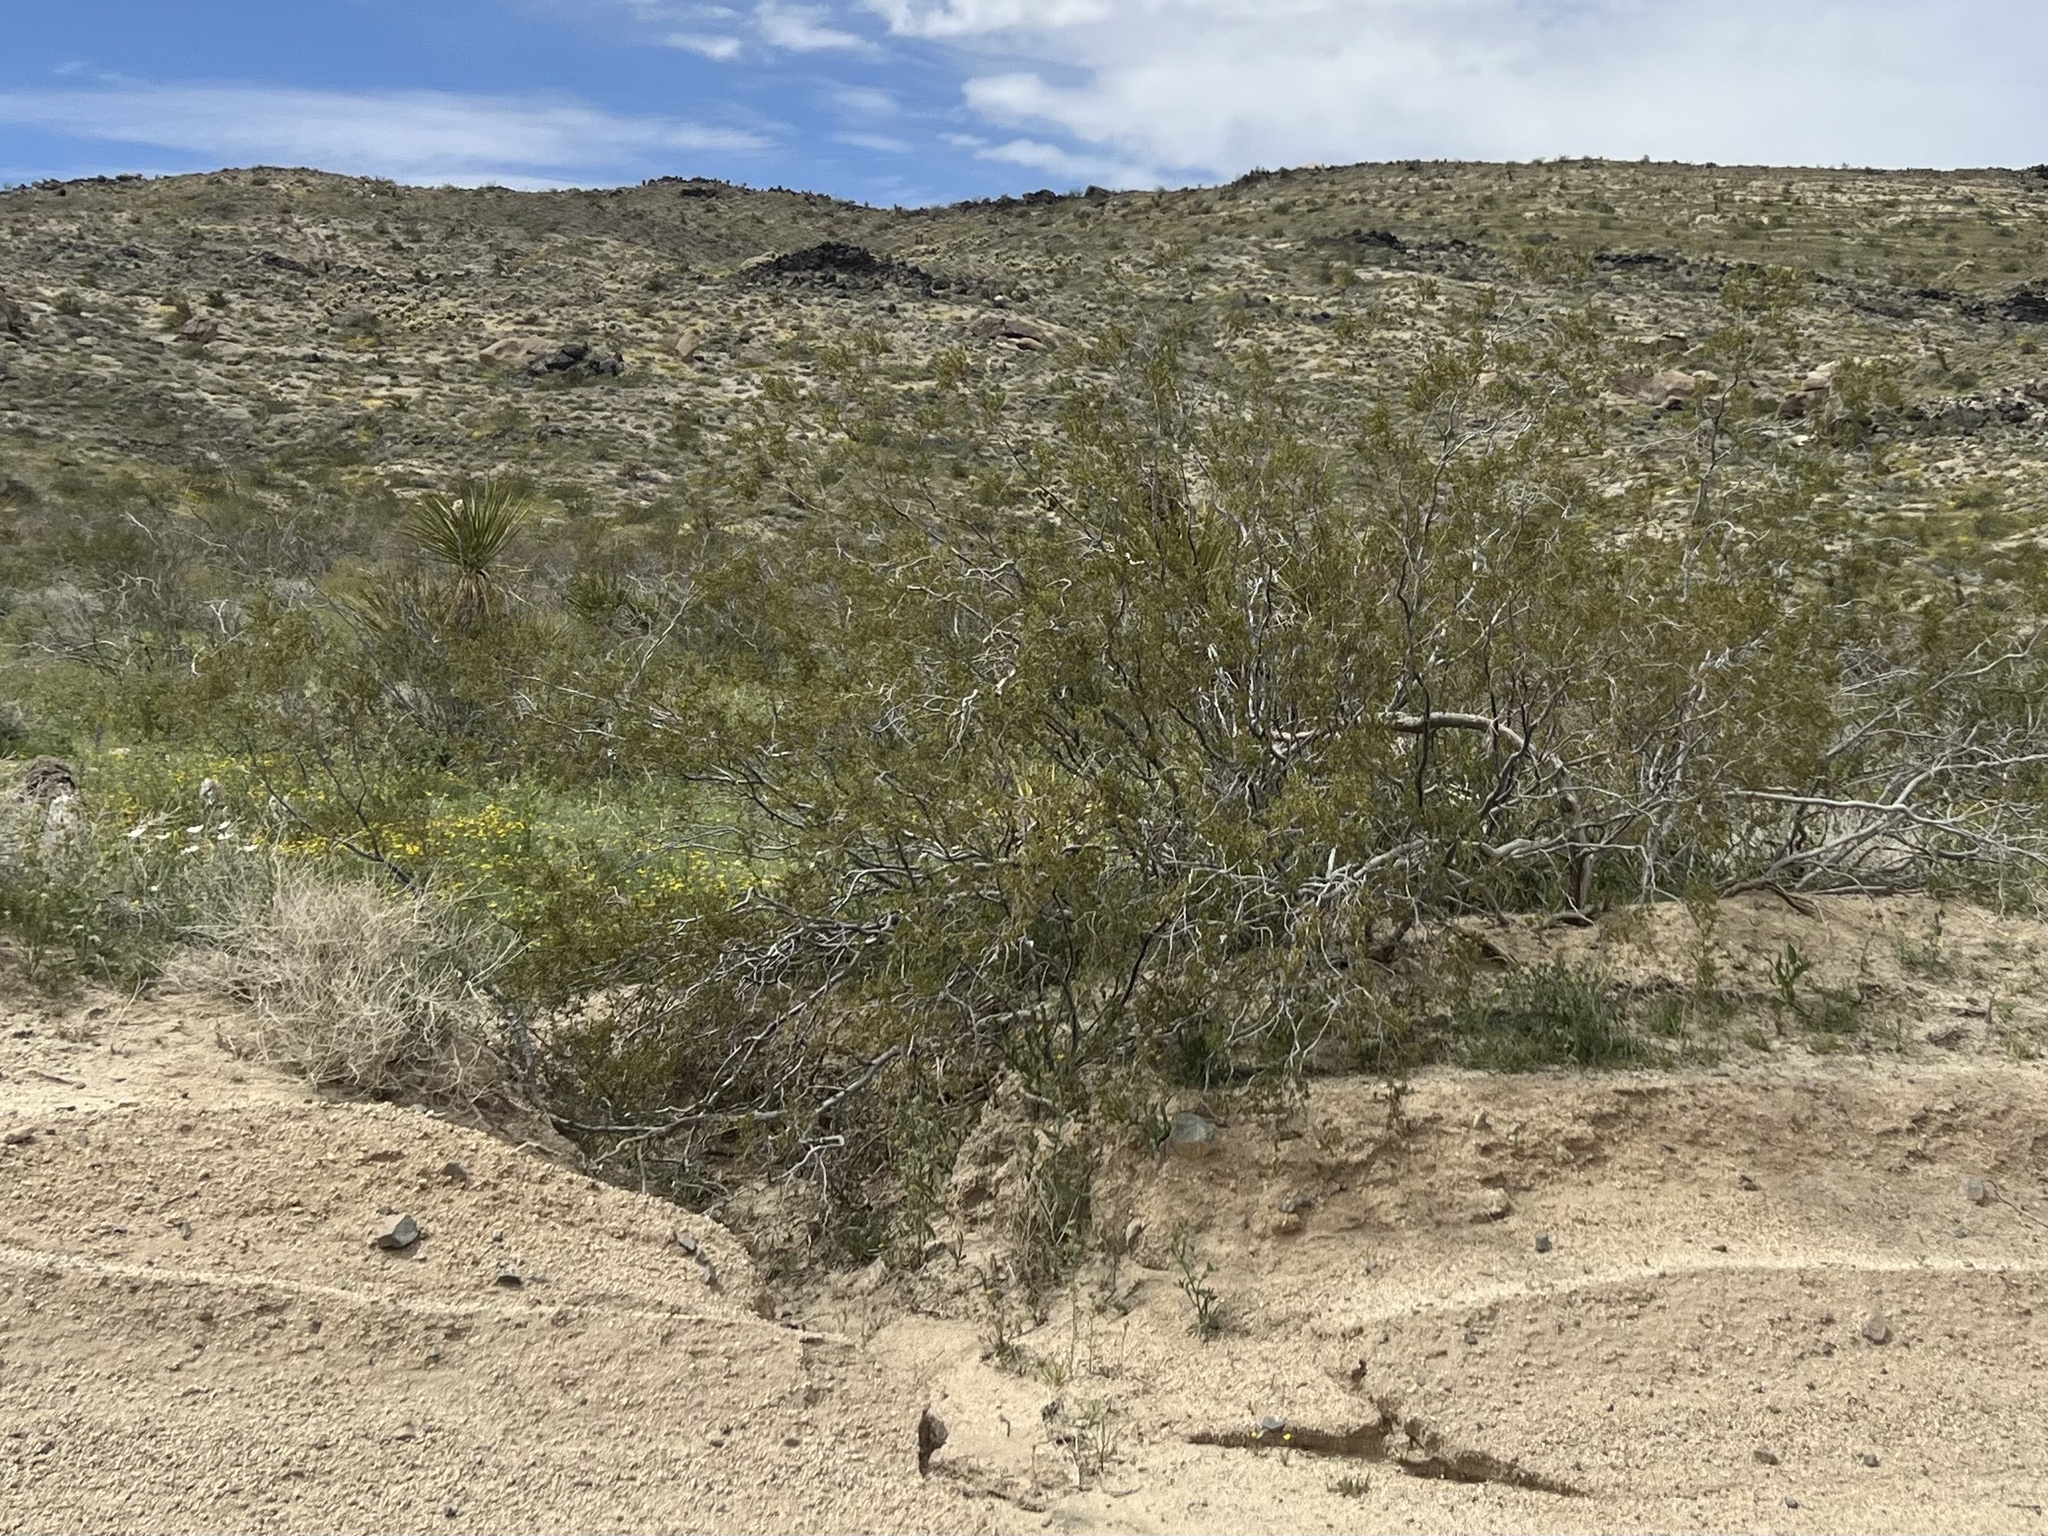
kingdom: Plantae
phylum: Tracheophyta
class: Magnoliopsida
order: Zygophyllales
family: Zygophyllaceae
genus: Larrea
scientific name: Larrea tridentata
